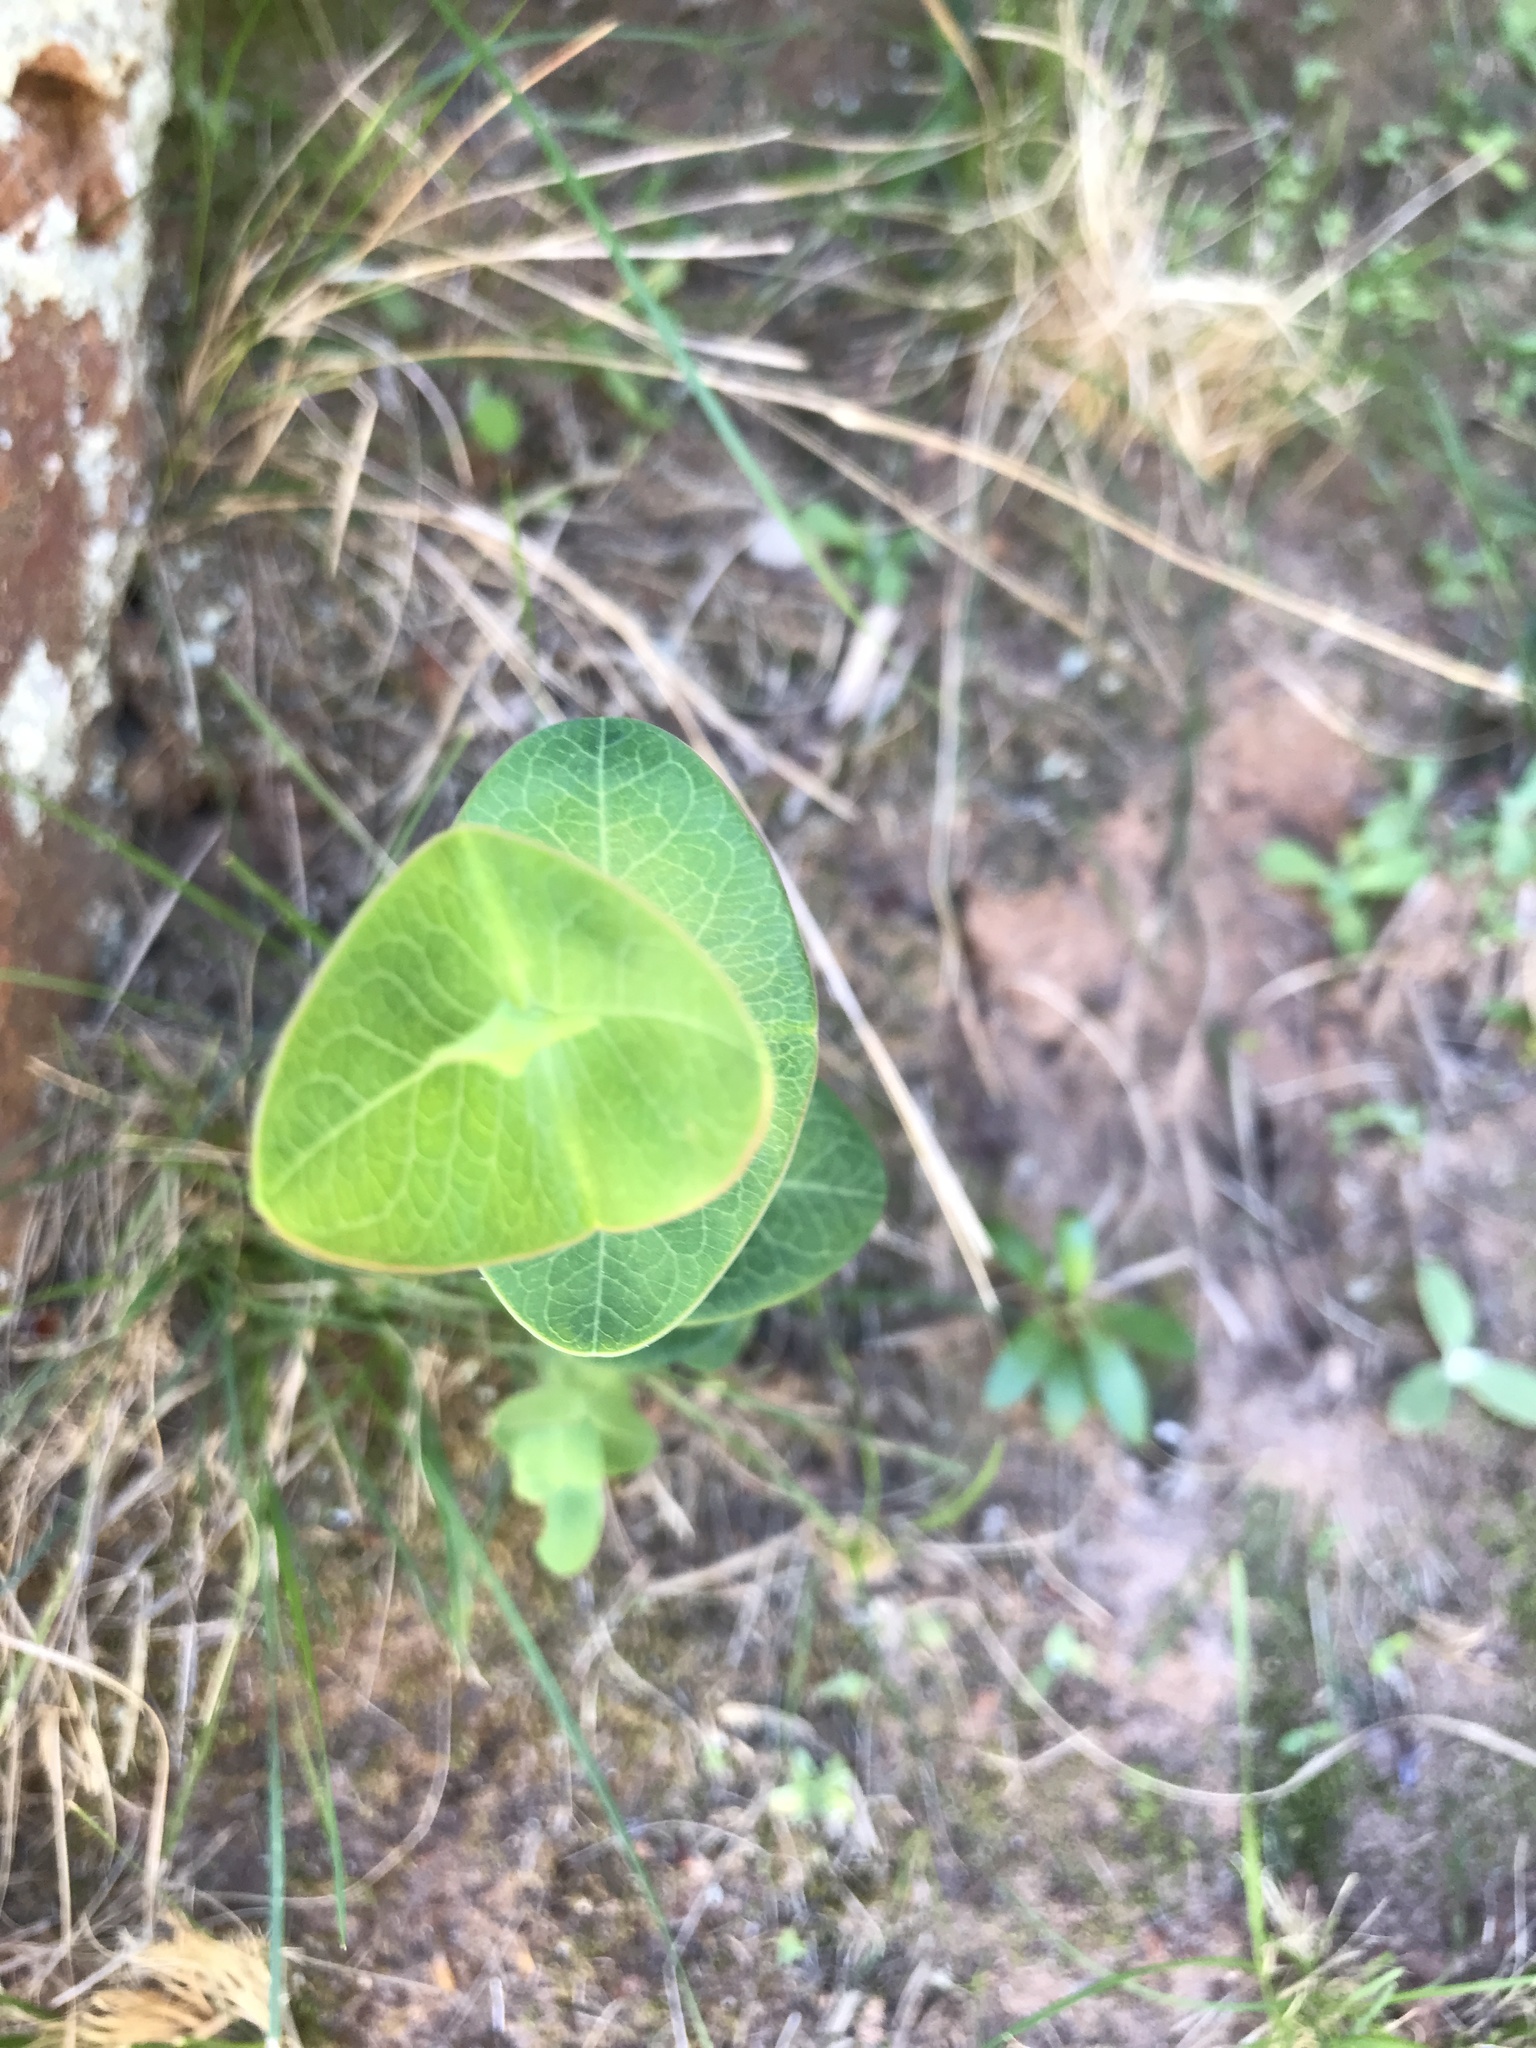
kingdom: Plantae
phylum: Tracheophyta
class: Magnoliopsida
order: Malpighiales
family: Hypericaceae
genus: Hypericum
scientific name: Hypericum connatum
